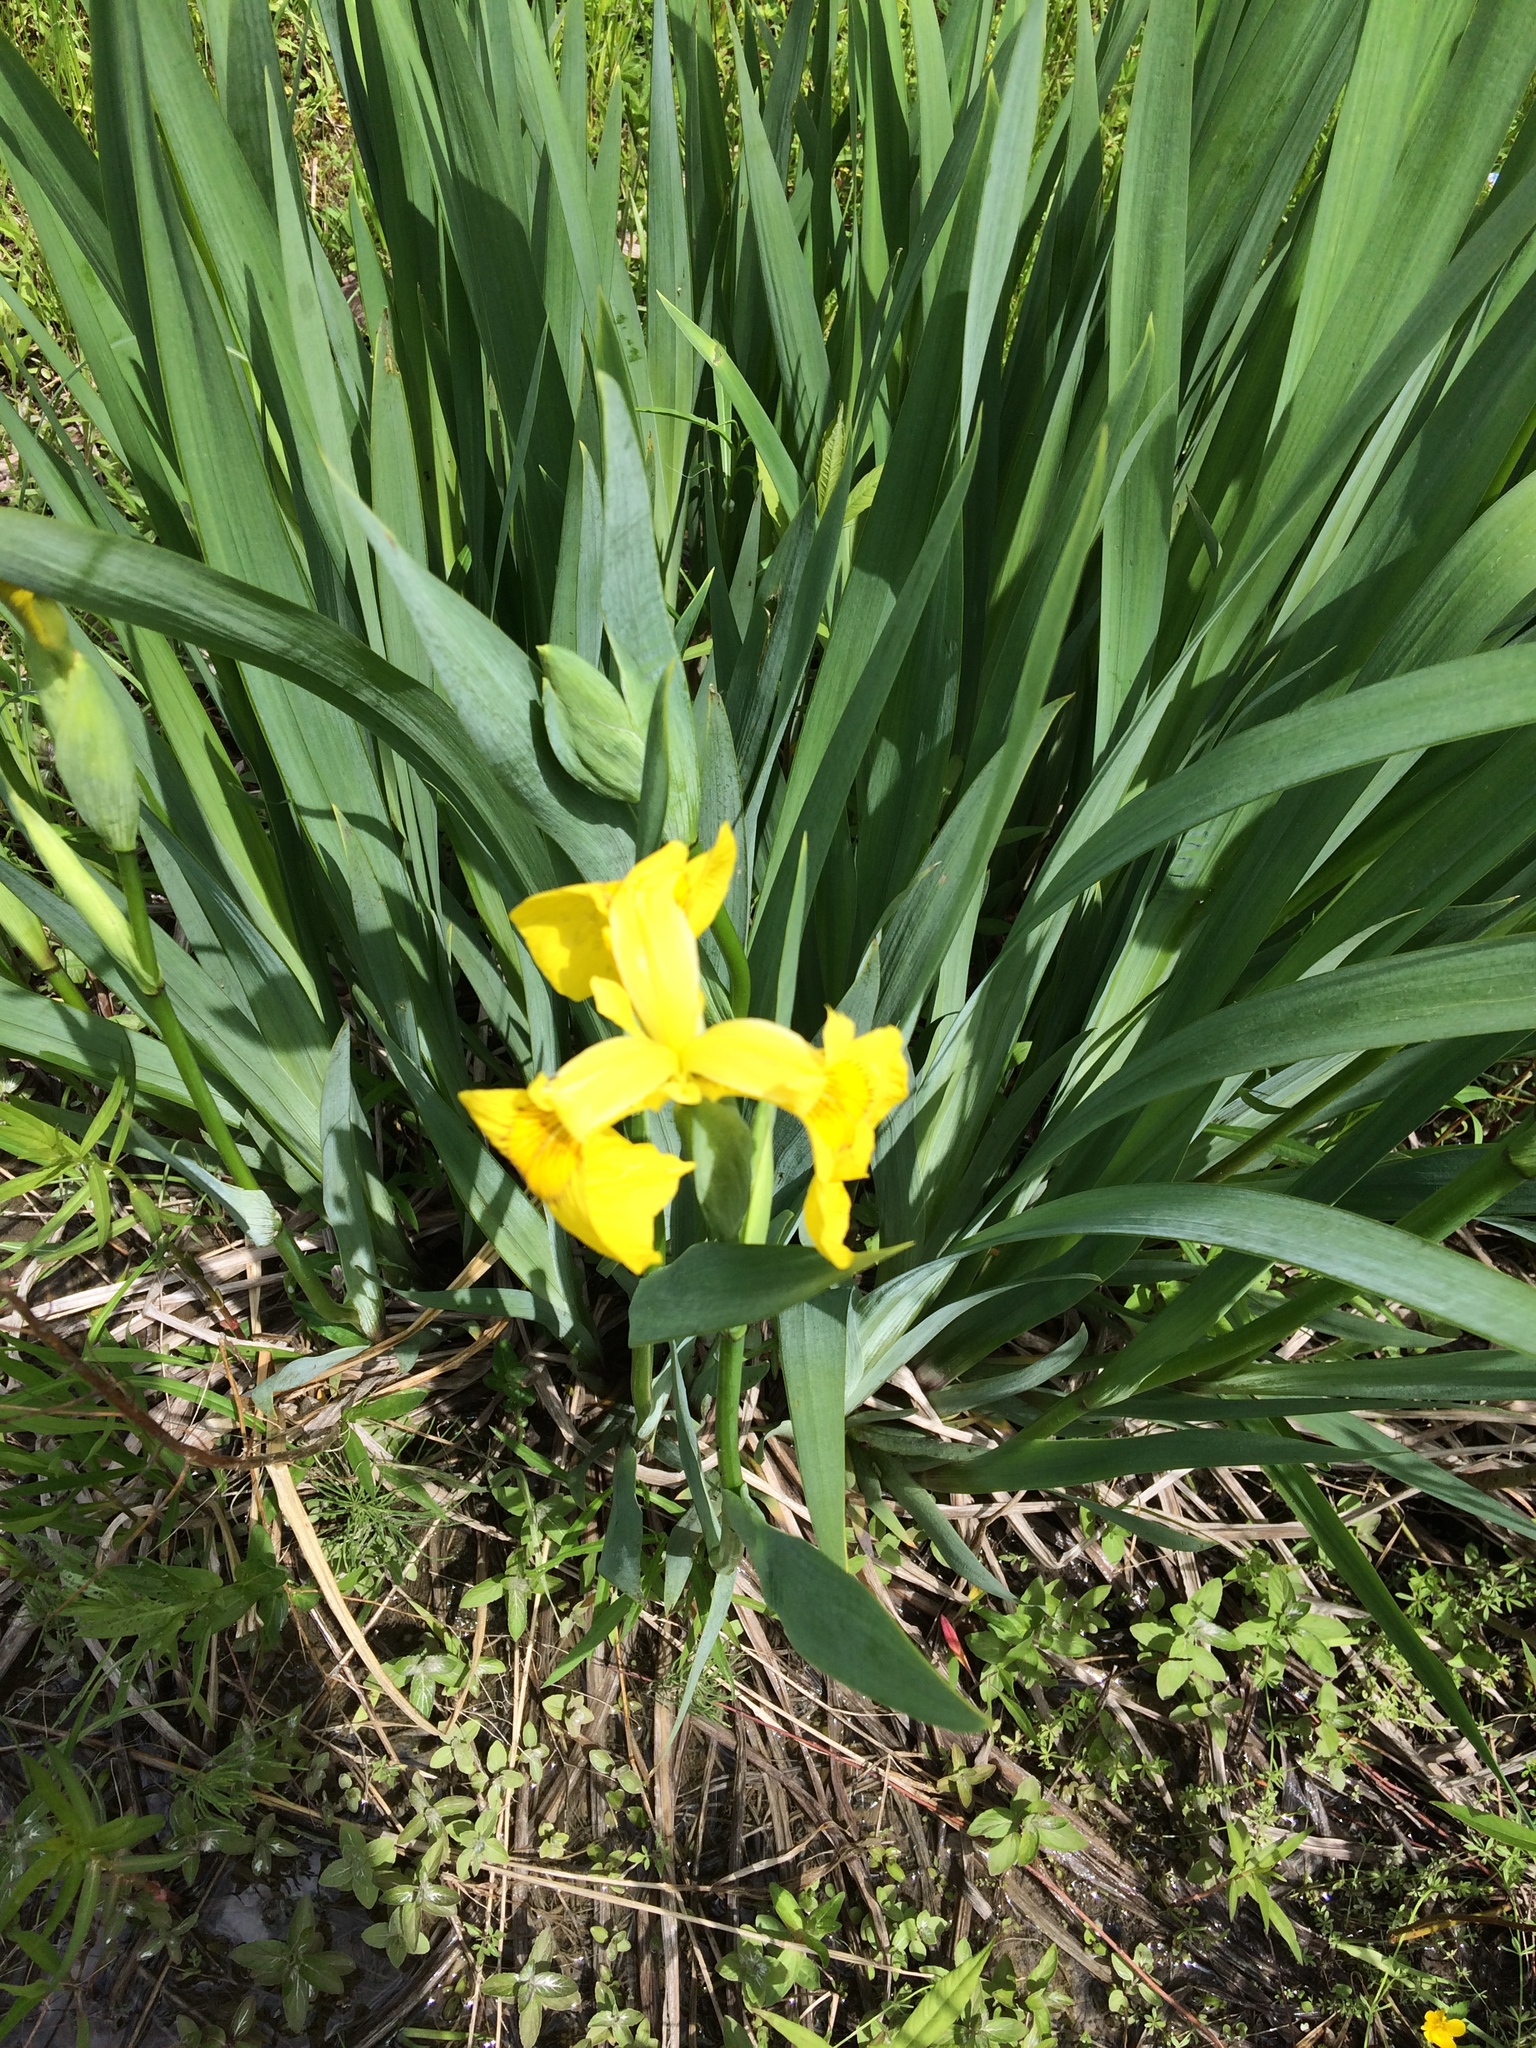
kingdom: Plantae
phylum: Tracheophyta
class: Liliopsida
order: Asparagales
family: Iridaceae
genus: Iris
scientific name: Iris pseudacorus
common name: Yellow flag
